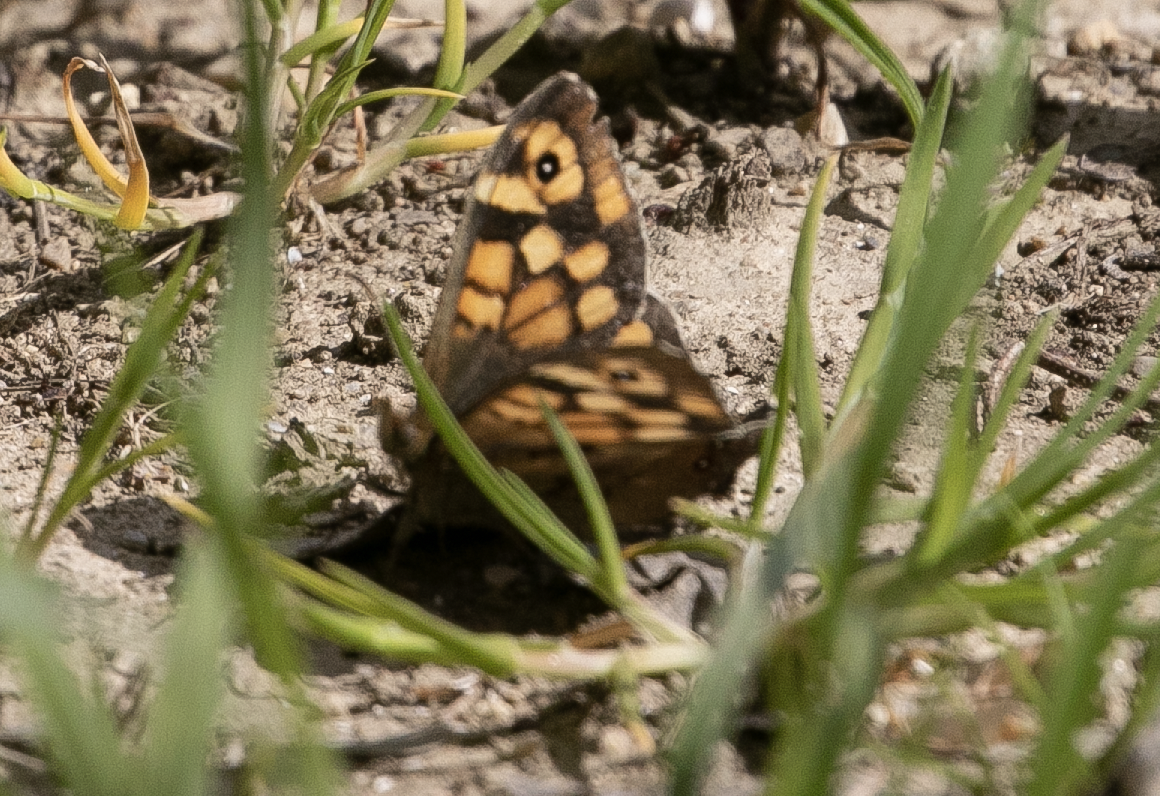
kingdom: Animalia
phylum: Arthropoda
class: Insecta
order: Lepidoptera
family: Nymphalidae
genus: Pararge
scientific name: Pararge aegeria
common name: Speckled wood
